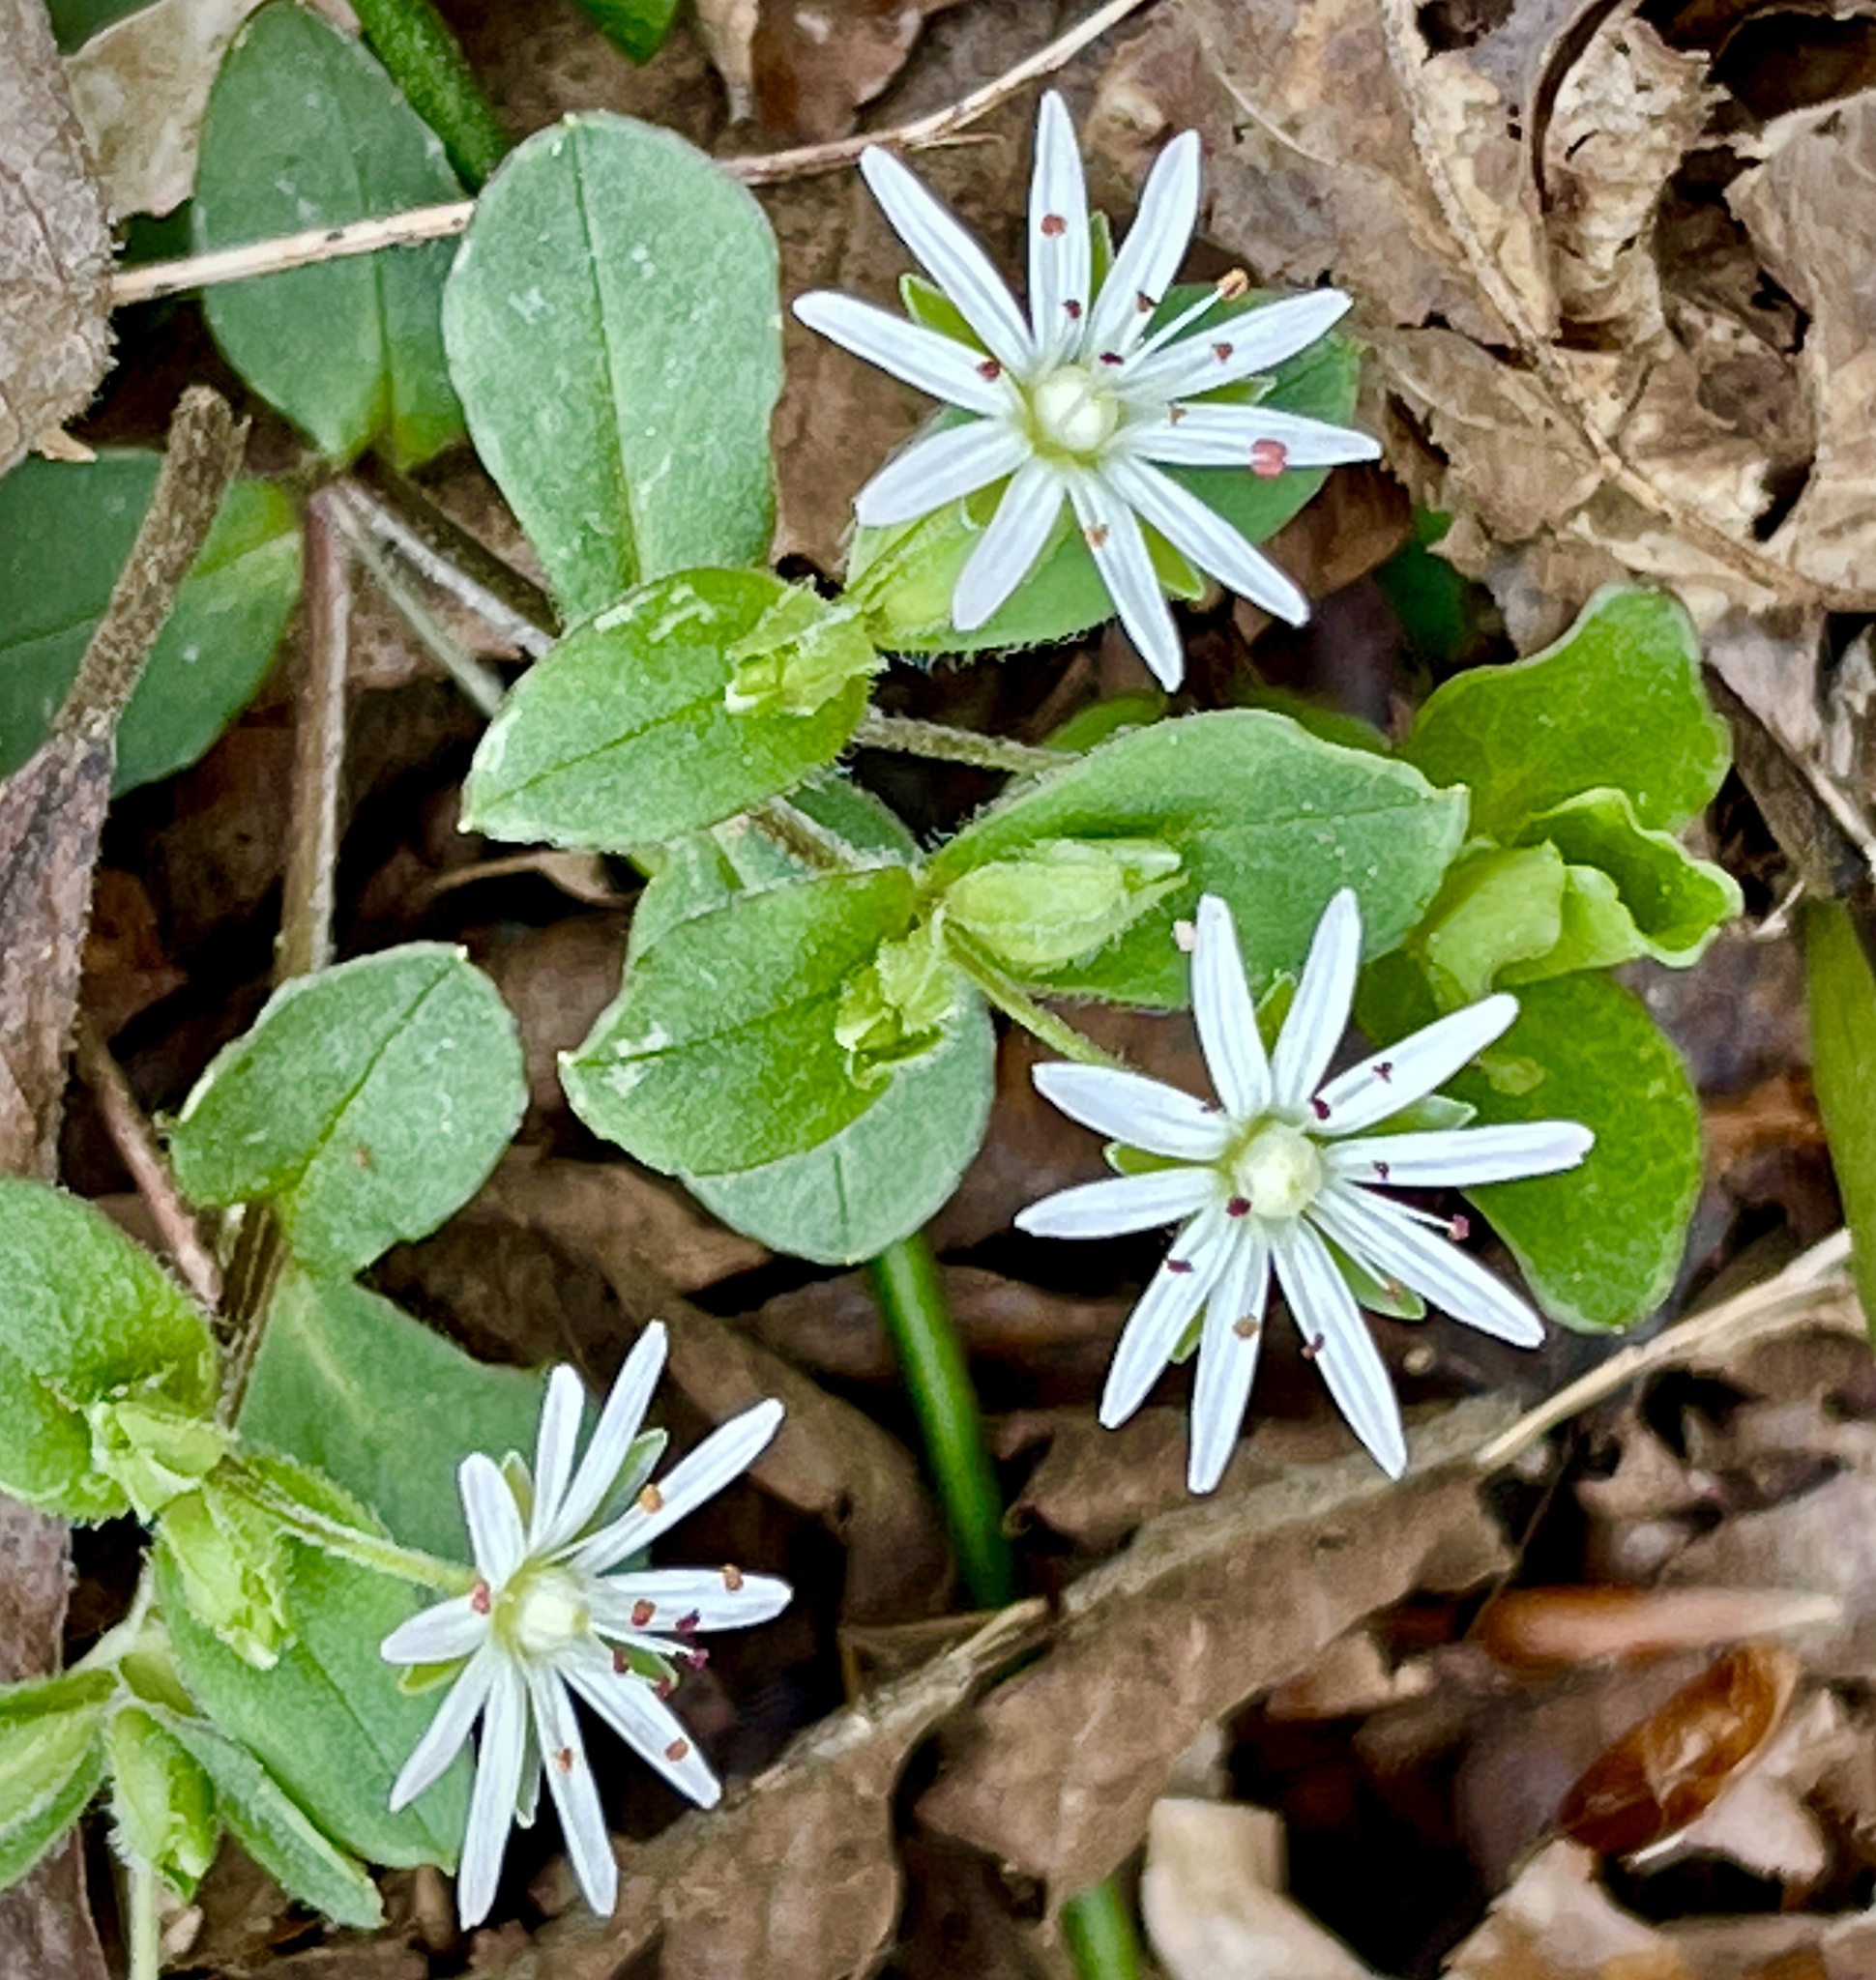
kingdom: Plantae
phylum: Tracheophyta
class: Magnoliopsida
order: Caryophyllales
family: Caryophyllaceae
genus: Stellaria
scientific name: Stellaria pubera
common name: Star chickweed
